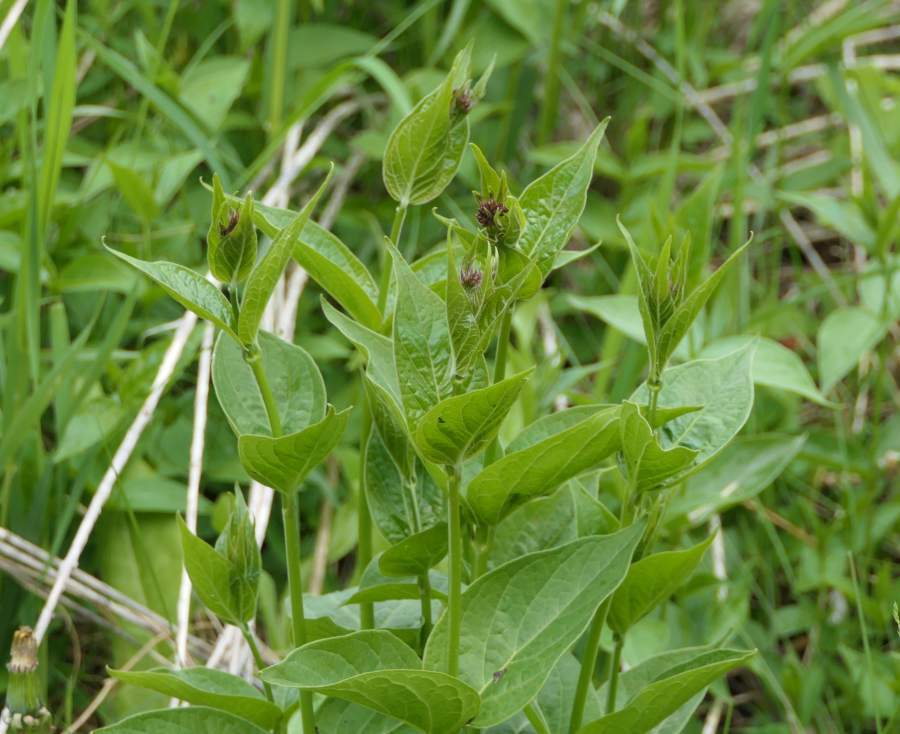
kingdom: Plantae
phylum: Tracheophyta
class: Magnoliopsida
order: Gentianales
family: Apocynaceae
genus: Vincetoxicum
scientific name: Vincetoxicum rossicum
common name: Dog-strangling vine
